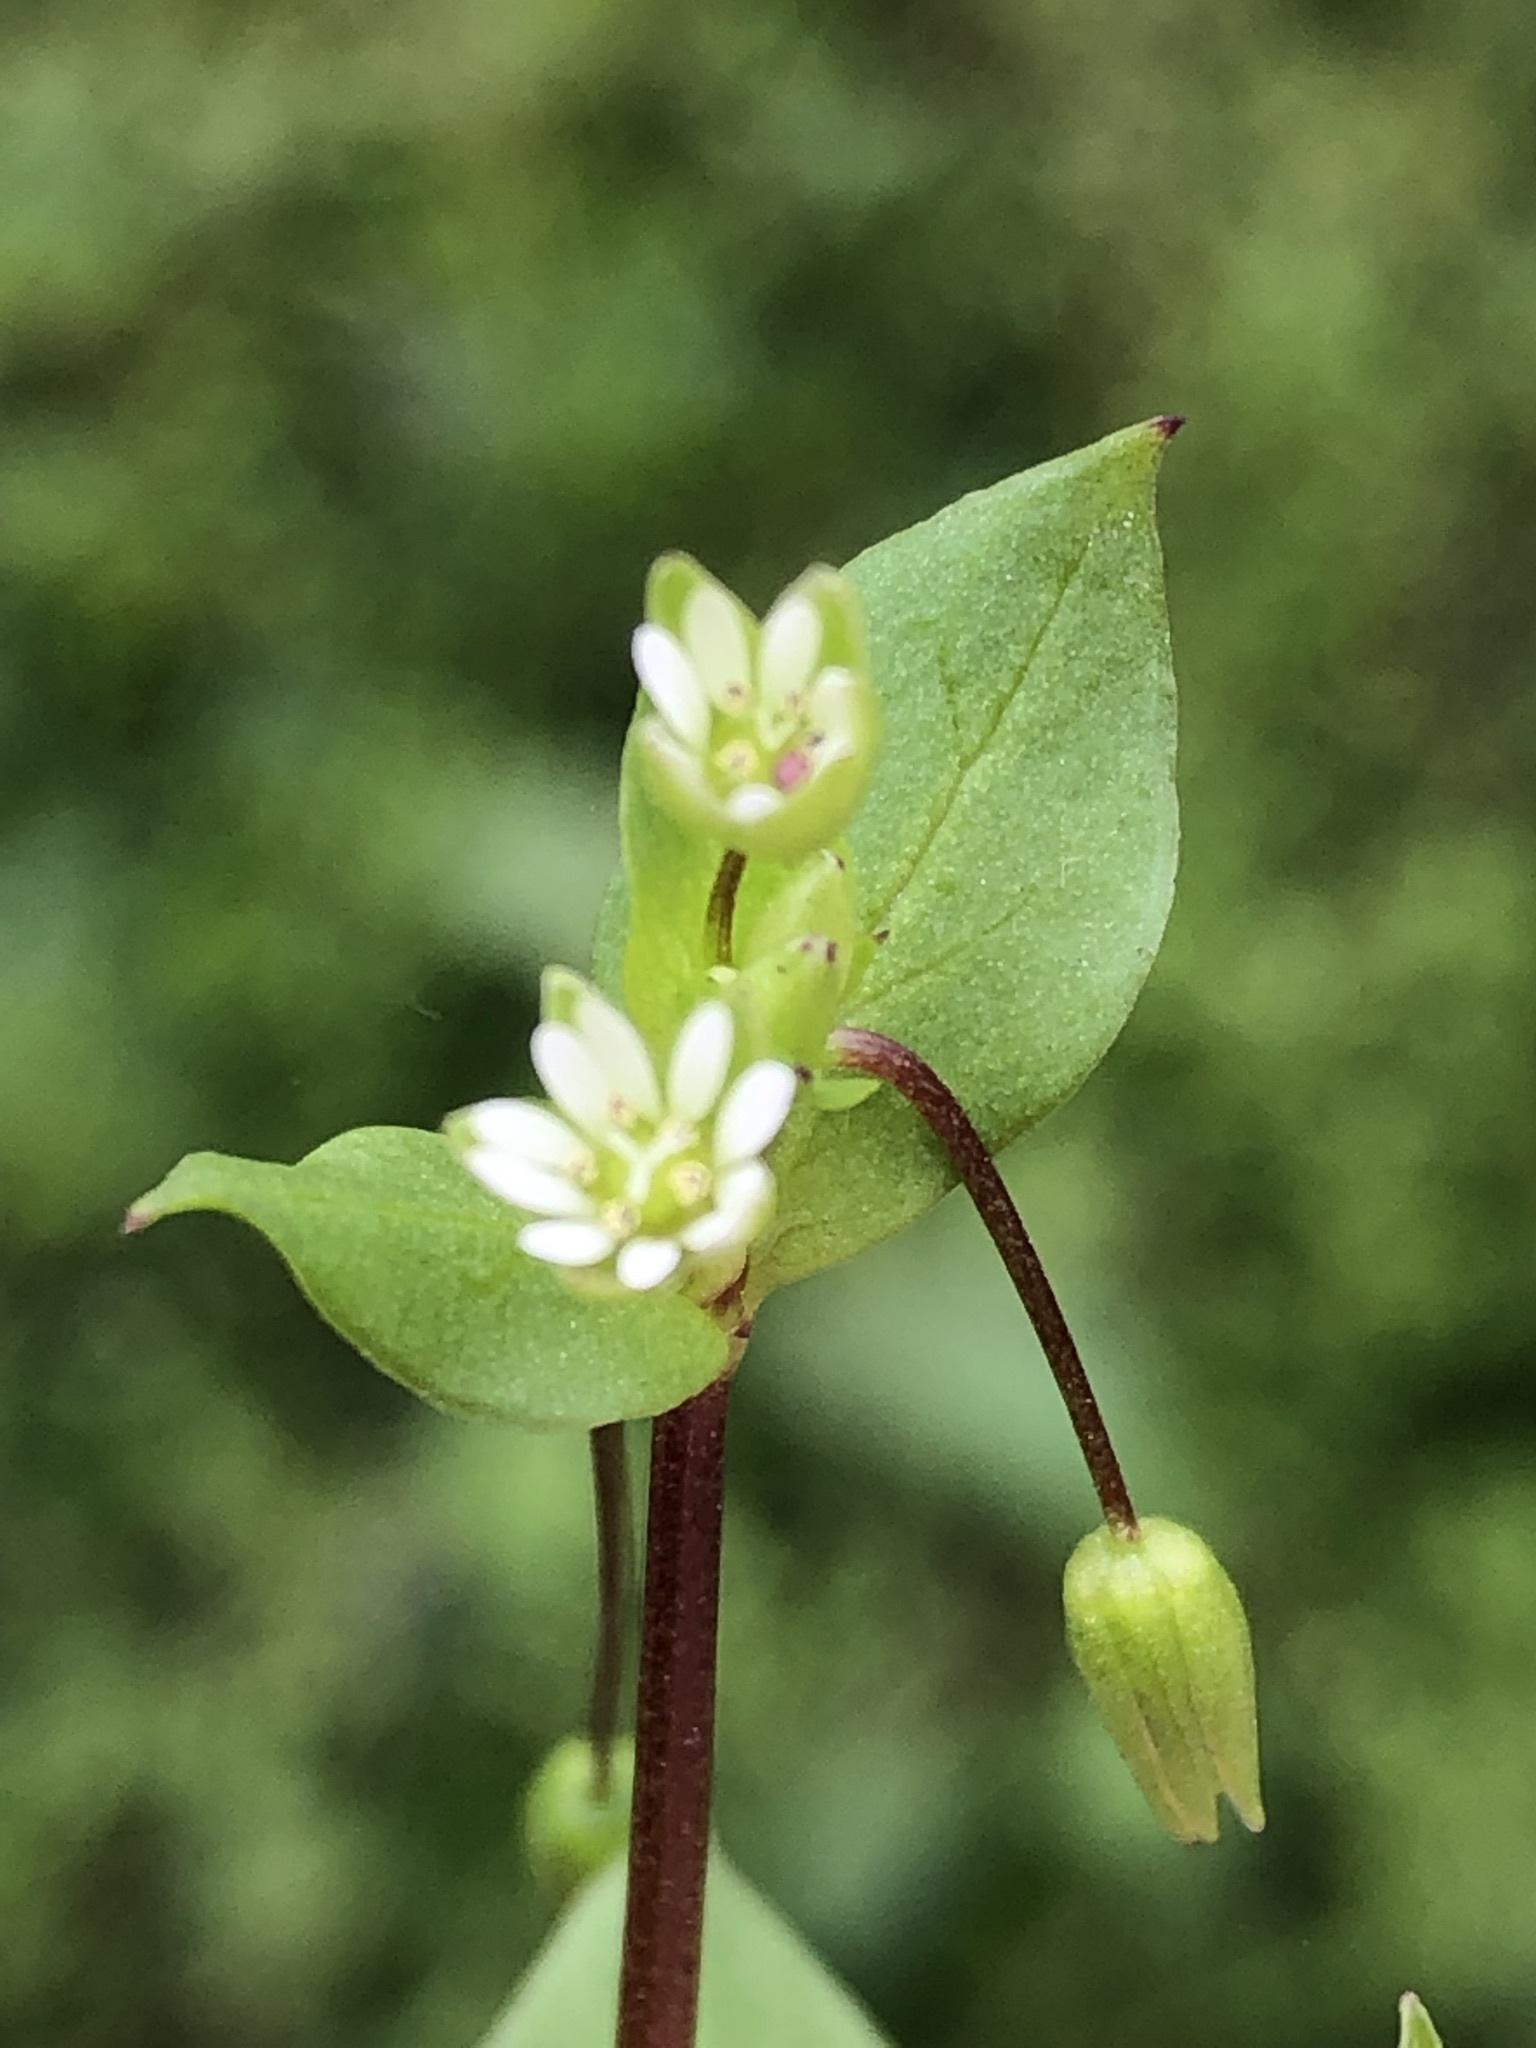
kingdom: Plantae
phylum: Tracheophyta
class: Magnoliopsida
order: Caryophyllales
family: Caryophyllaceae
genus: Stellaria
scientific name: Stellaria media
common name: Common chickweed
